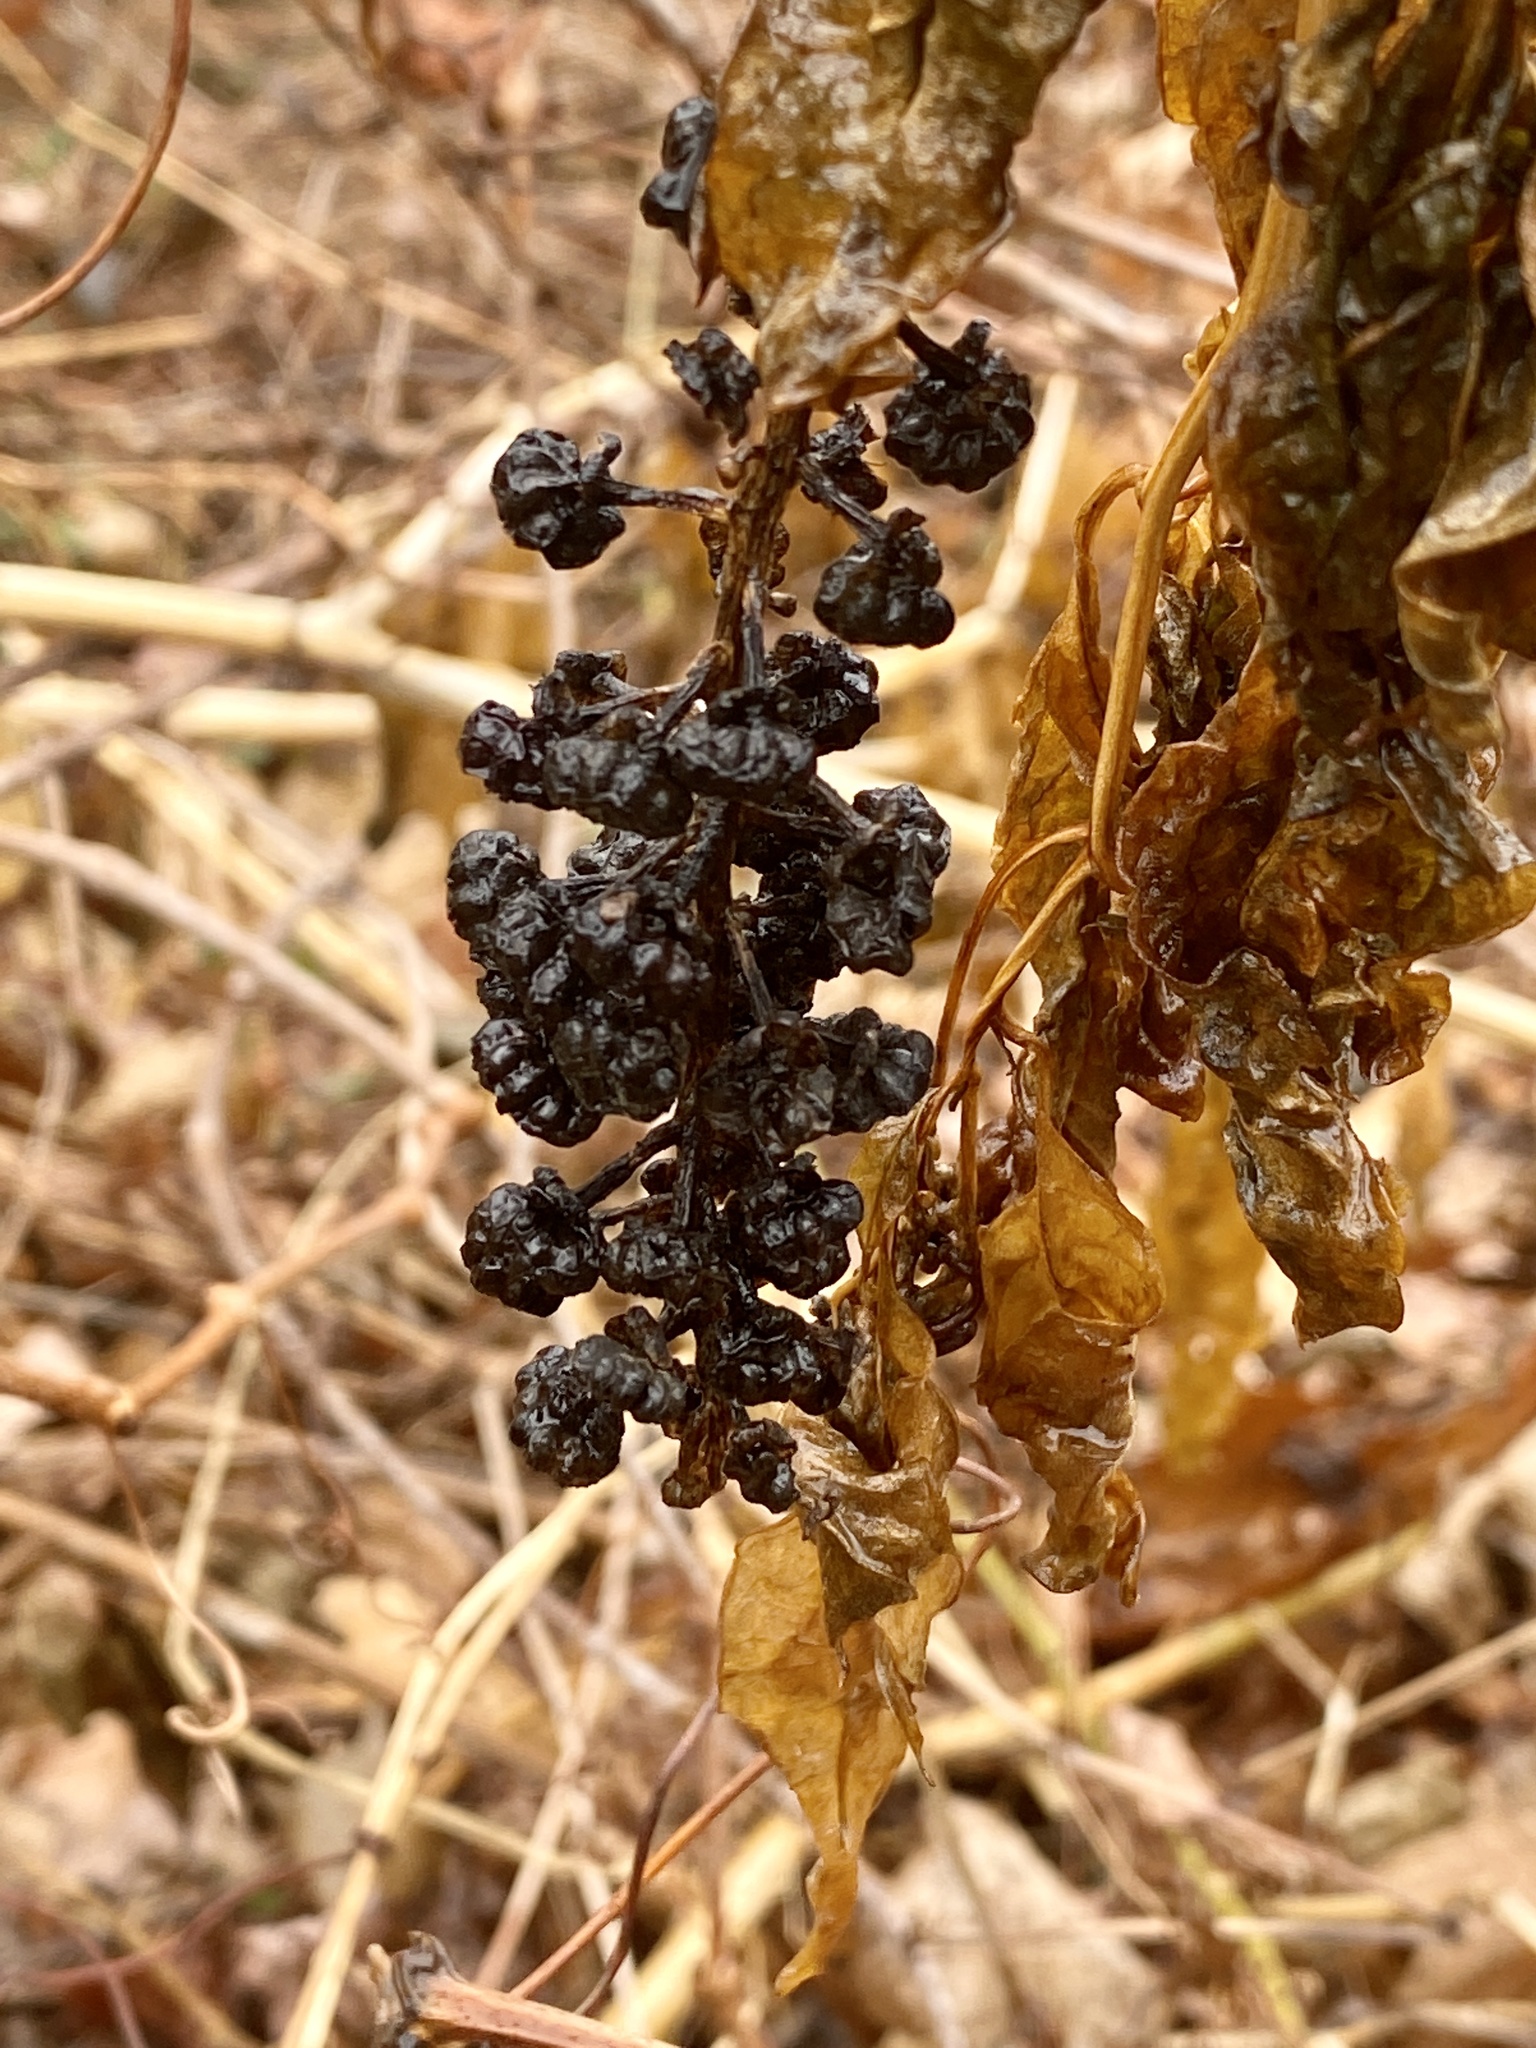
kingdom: Plantae
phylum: Tracheophyta
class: Magnoliopsida
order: Caryophyllales
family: Phytolaccaceae
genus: Phytolacca
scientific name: Phytolacca americana
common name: American pokeweed
